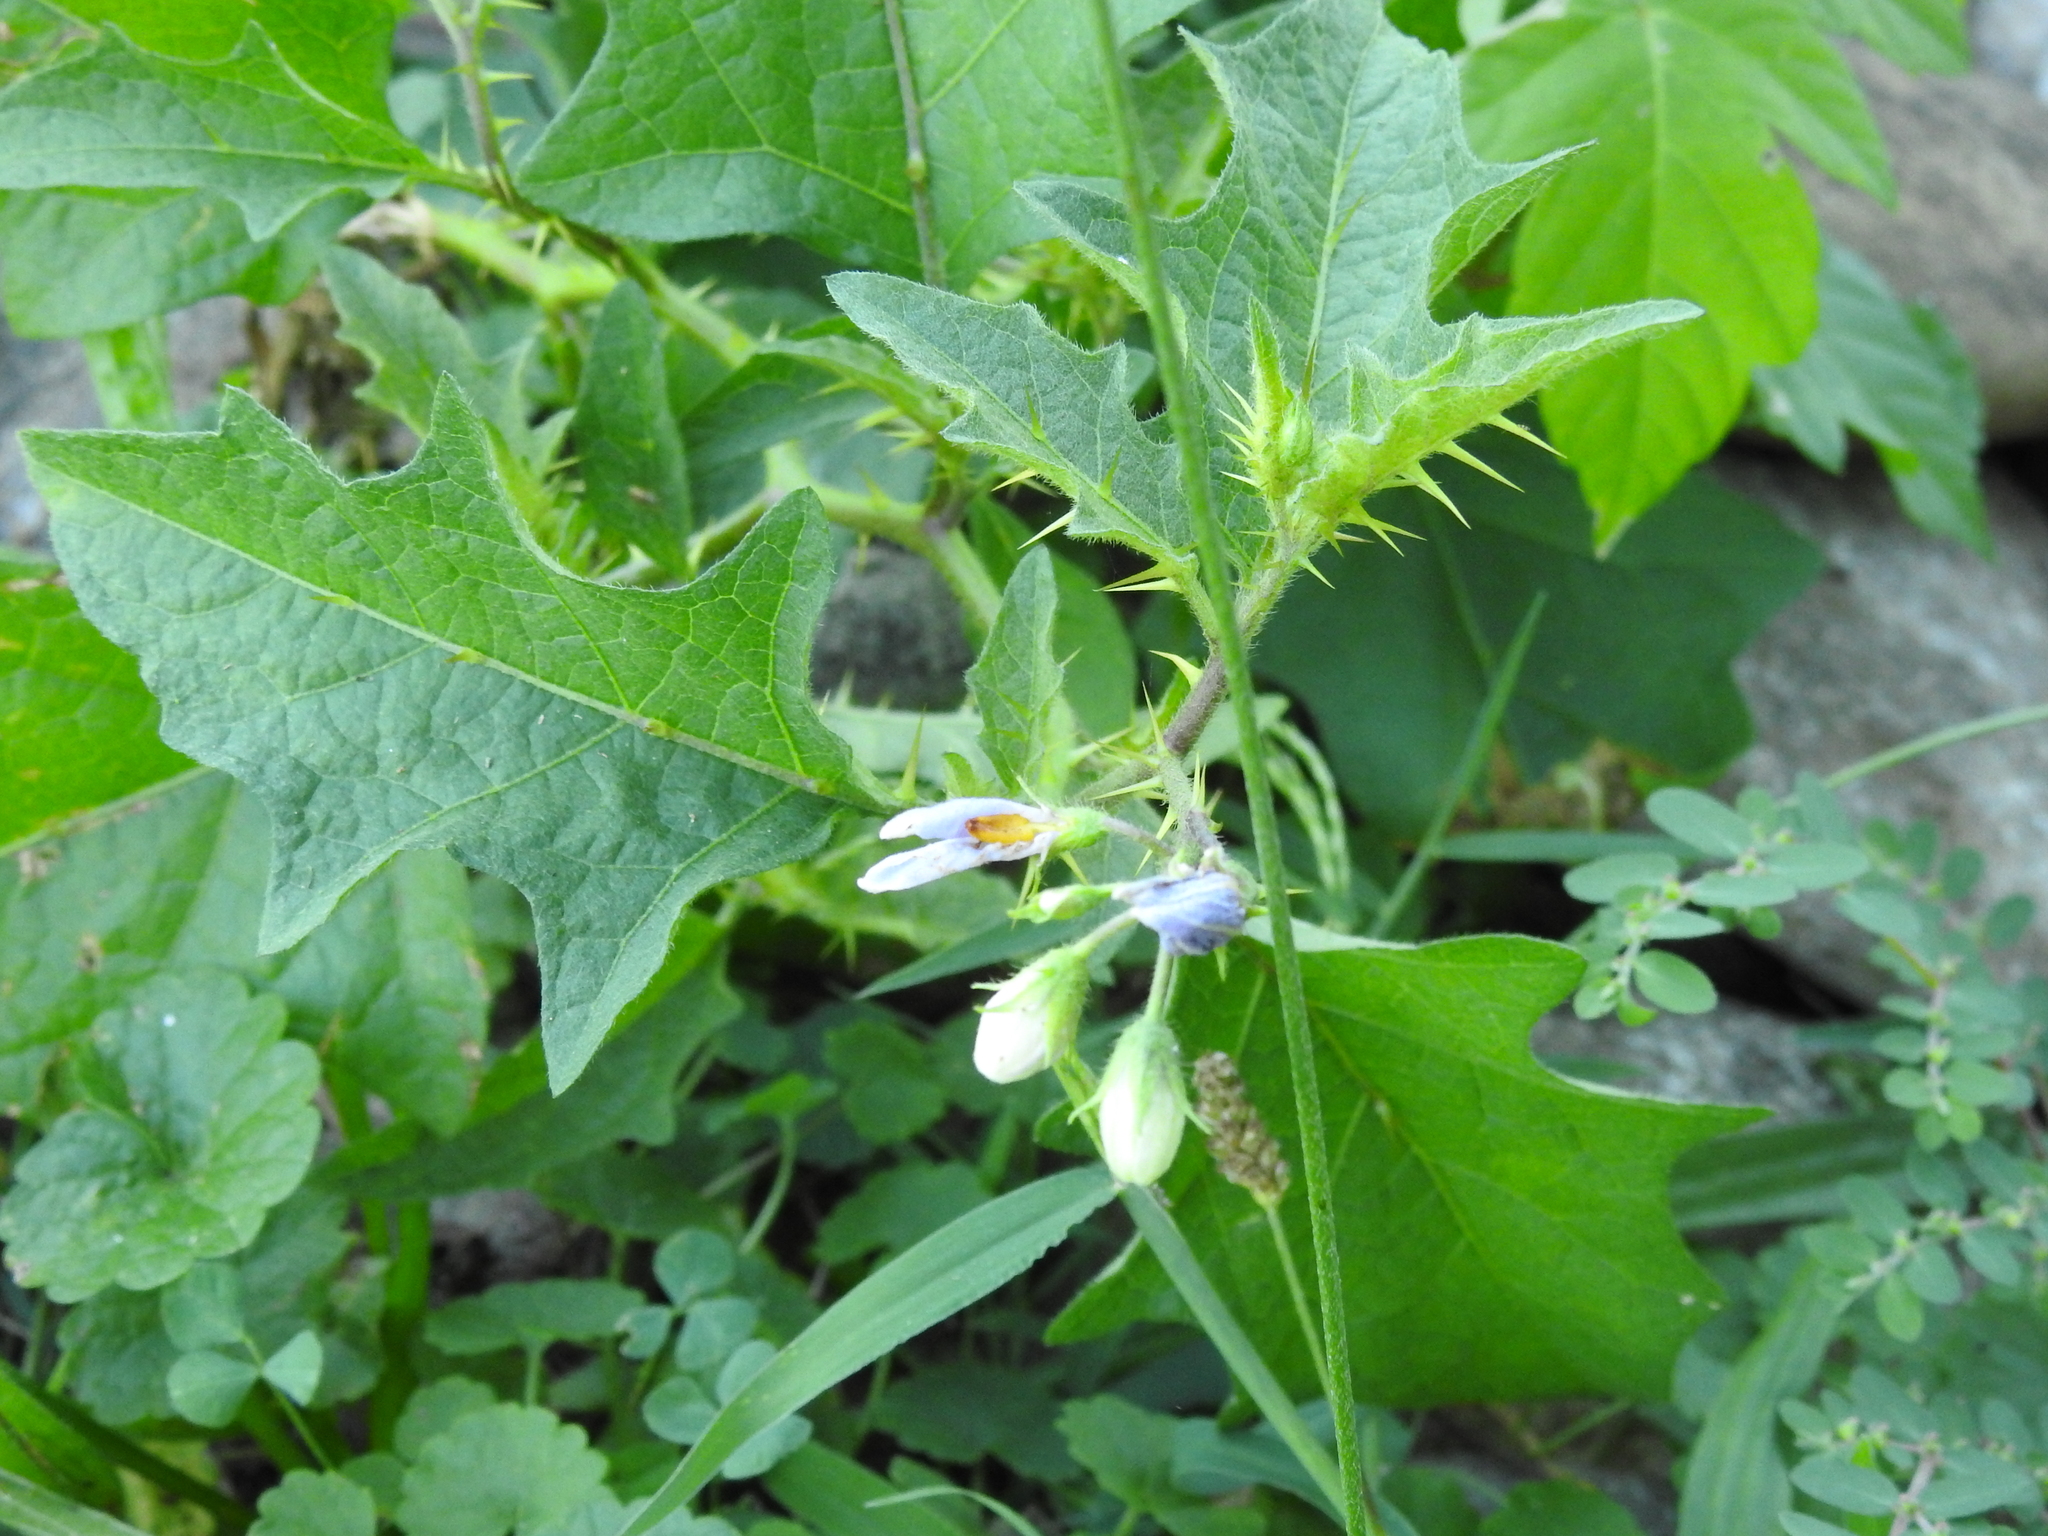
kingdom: Plantae
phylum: Tracheophyta
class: Magnoliopsida
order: Solanales
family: Solanaceae
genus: Solanum
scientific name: Solanum carolinense
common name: Horse-nettle
